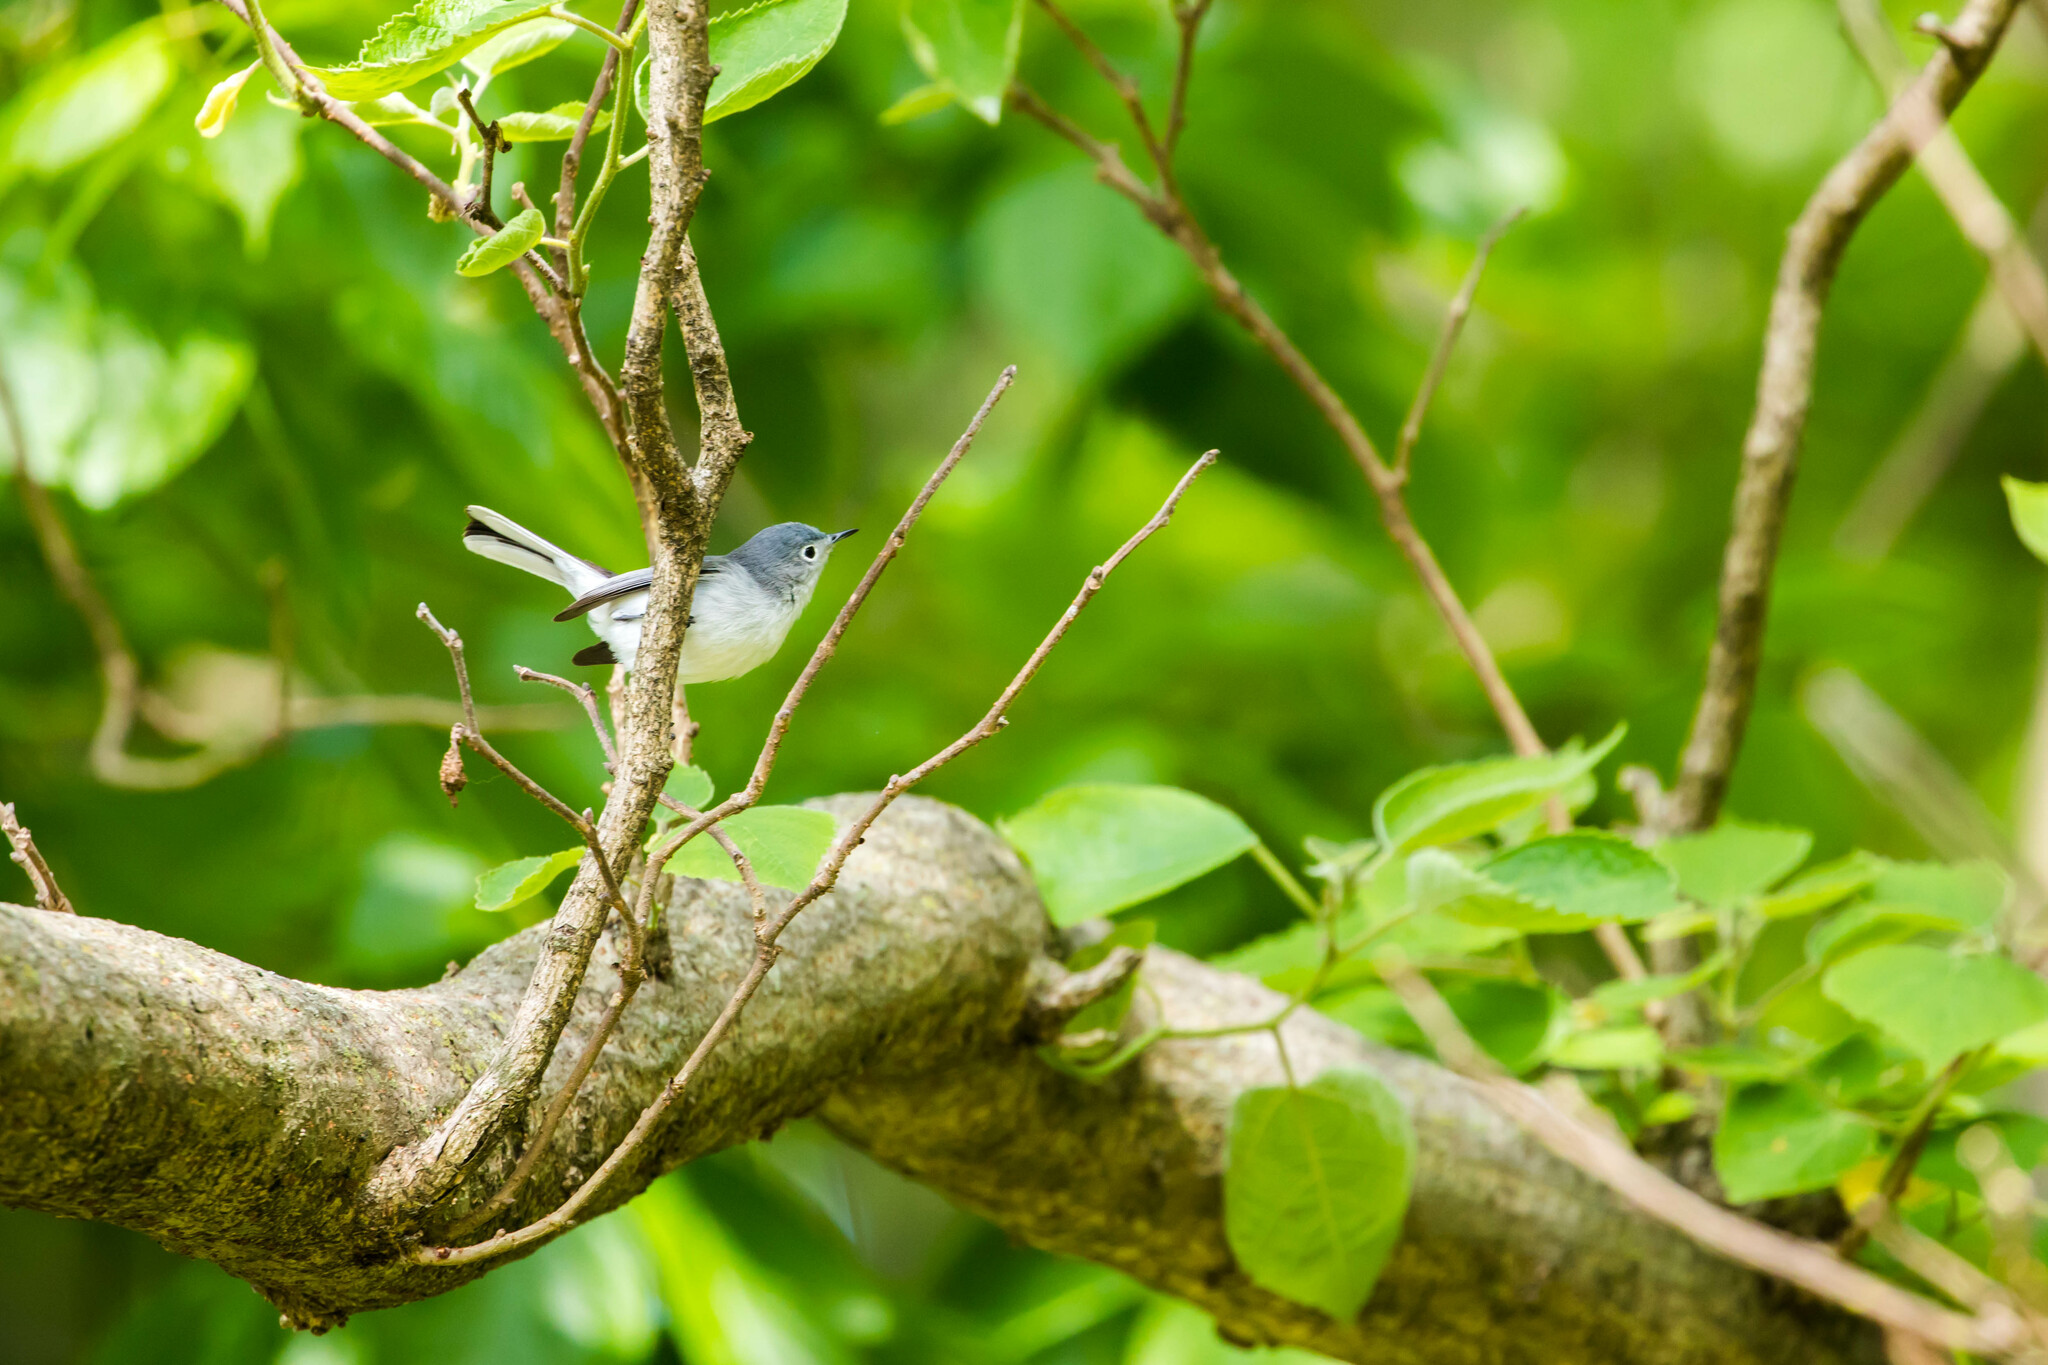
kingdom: Animalia
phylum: Chordata
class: Aves
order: Passeriformes
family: Polioptilidae
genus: Polioptila
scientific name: Polioptila caerulea
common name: Blue-gray gnatcatcher
